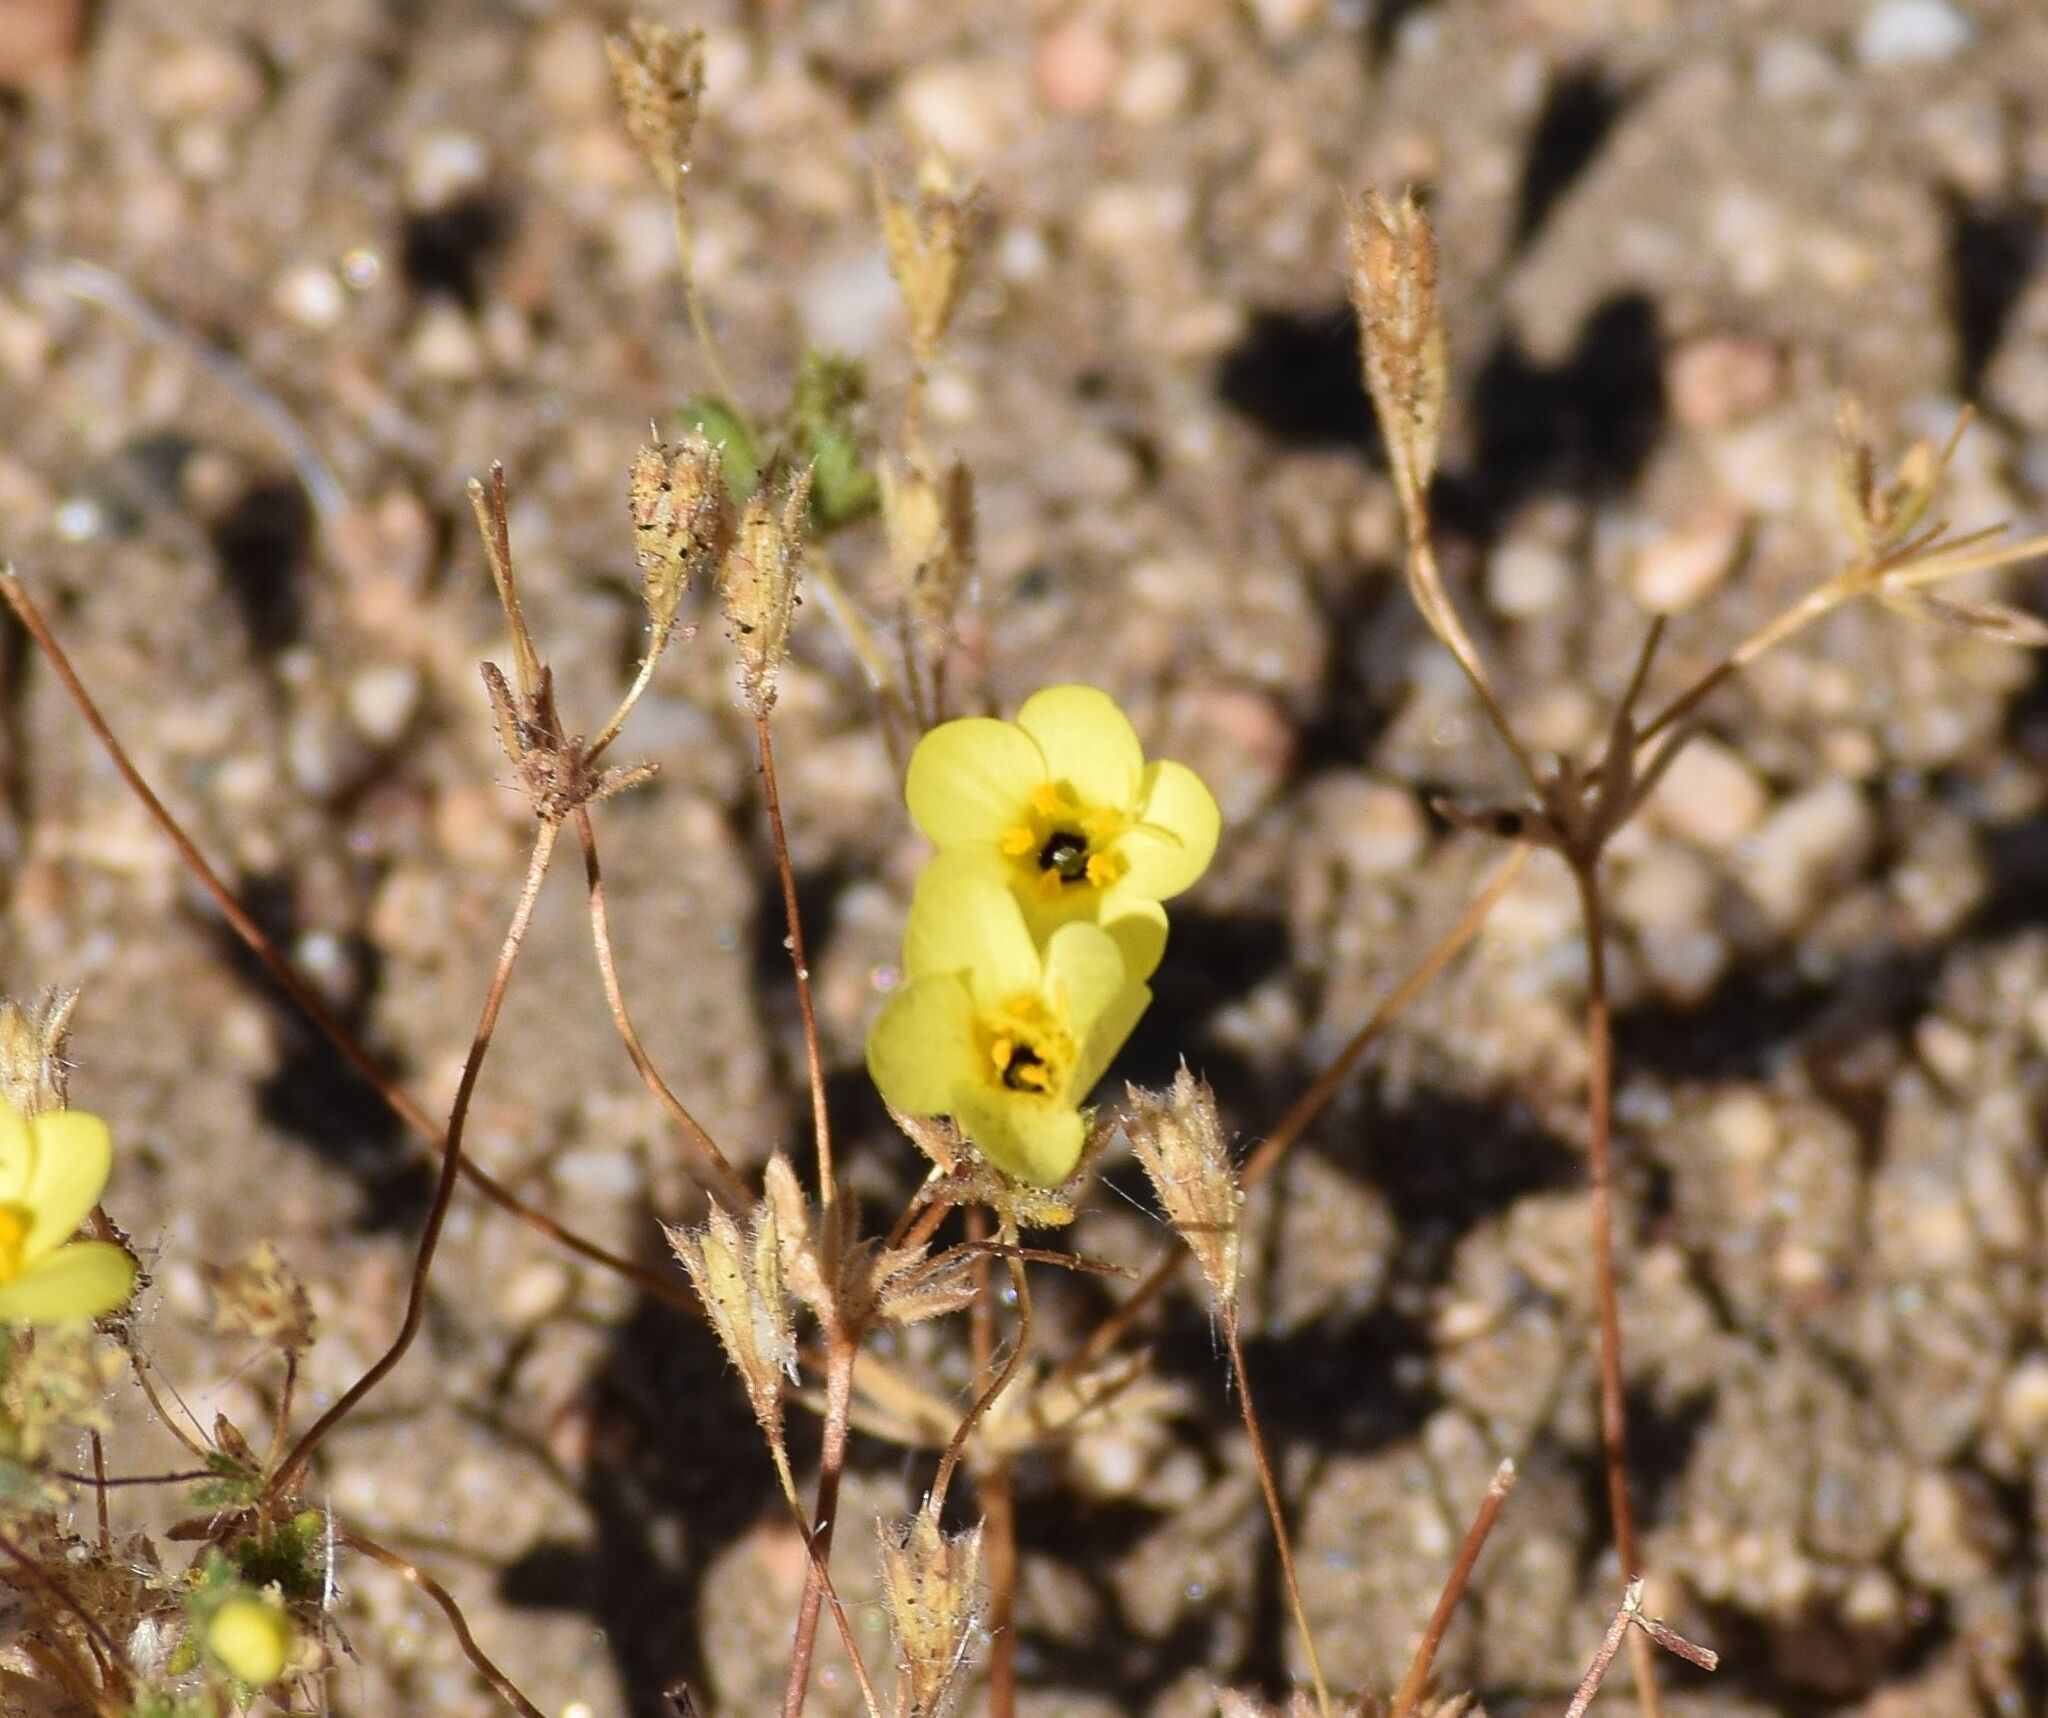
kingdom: Plantae
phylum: Tracheophyta
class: Magnoliopsida
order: Ericales
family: Polemoniaceae
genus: Leptosiphon
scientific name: Leptosiphon chrysanthus
